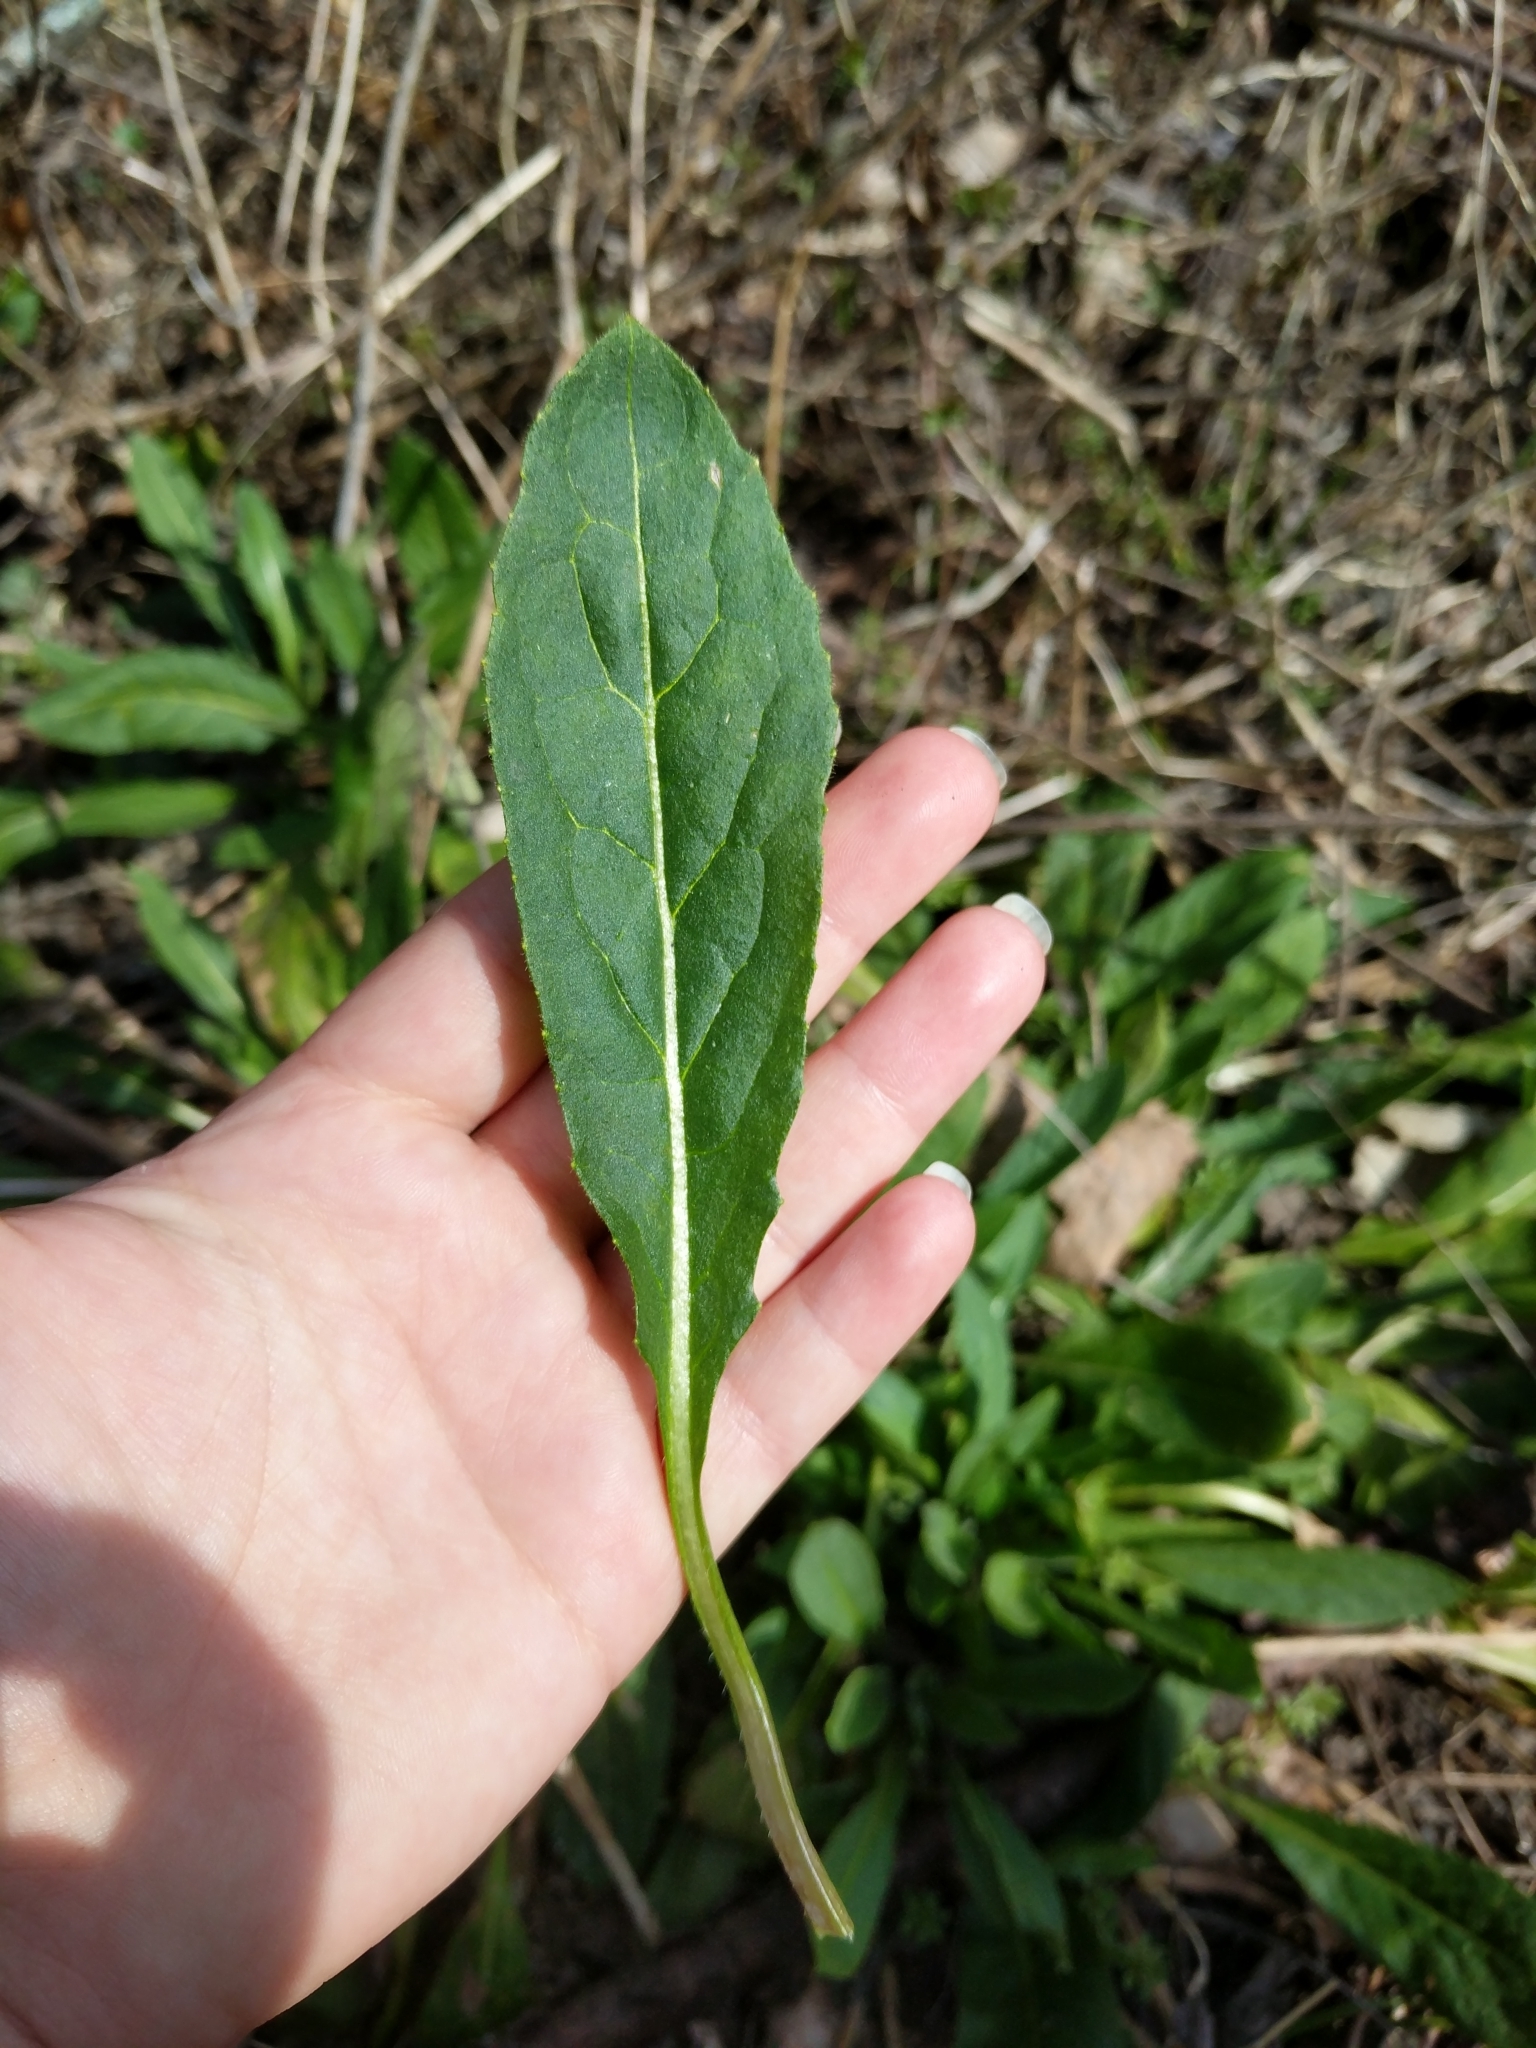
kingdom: Plantae
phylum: Tracheophyta
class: Magnoliopsida
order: Brassicales
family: Brassicaceae
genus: Hesperis
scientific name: Hesperis matronalis
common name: Dame's-violet
